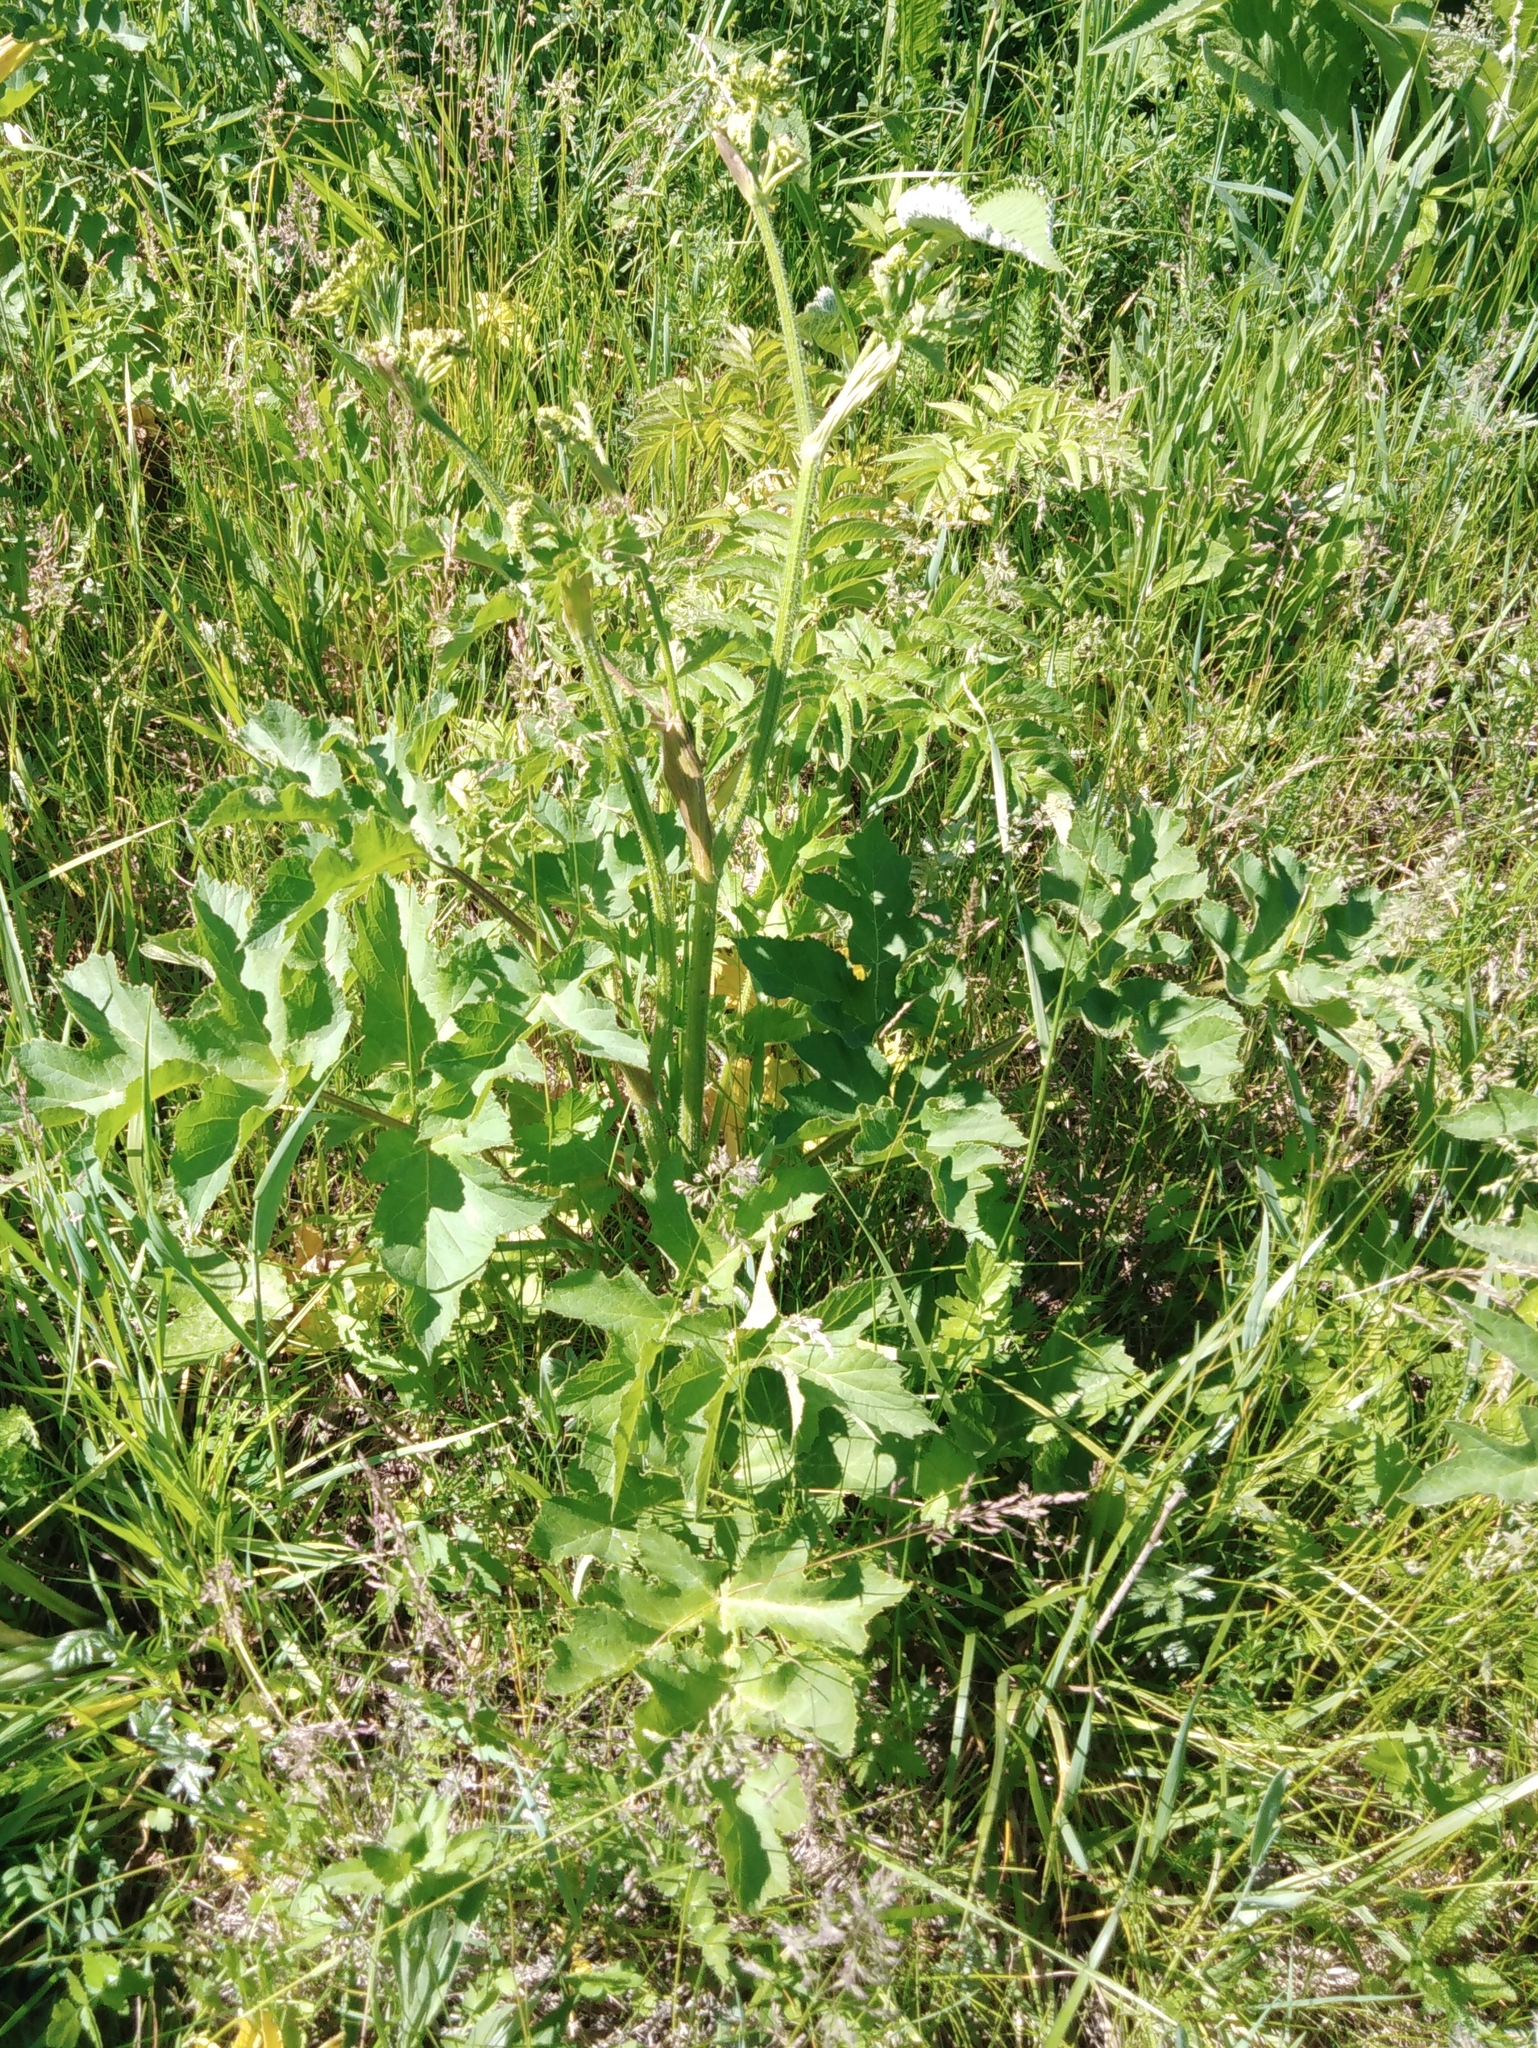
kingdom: Plantae
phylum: Tracheophyta
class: Magnoliopsida
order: Apiales
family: Apiaceae
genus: Heracleum
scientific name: Heracleum sphondylium
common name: Hogweed
